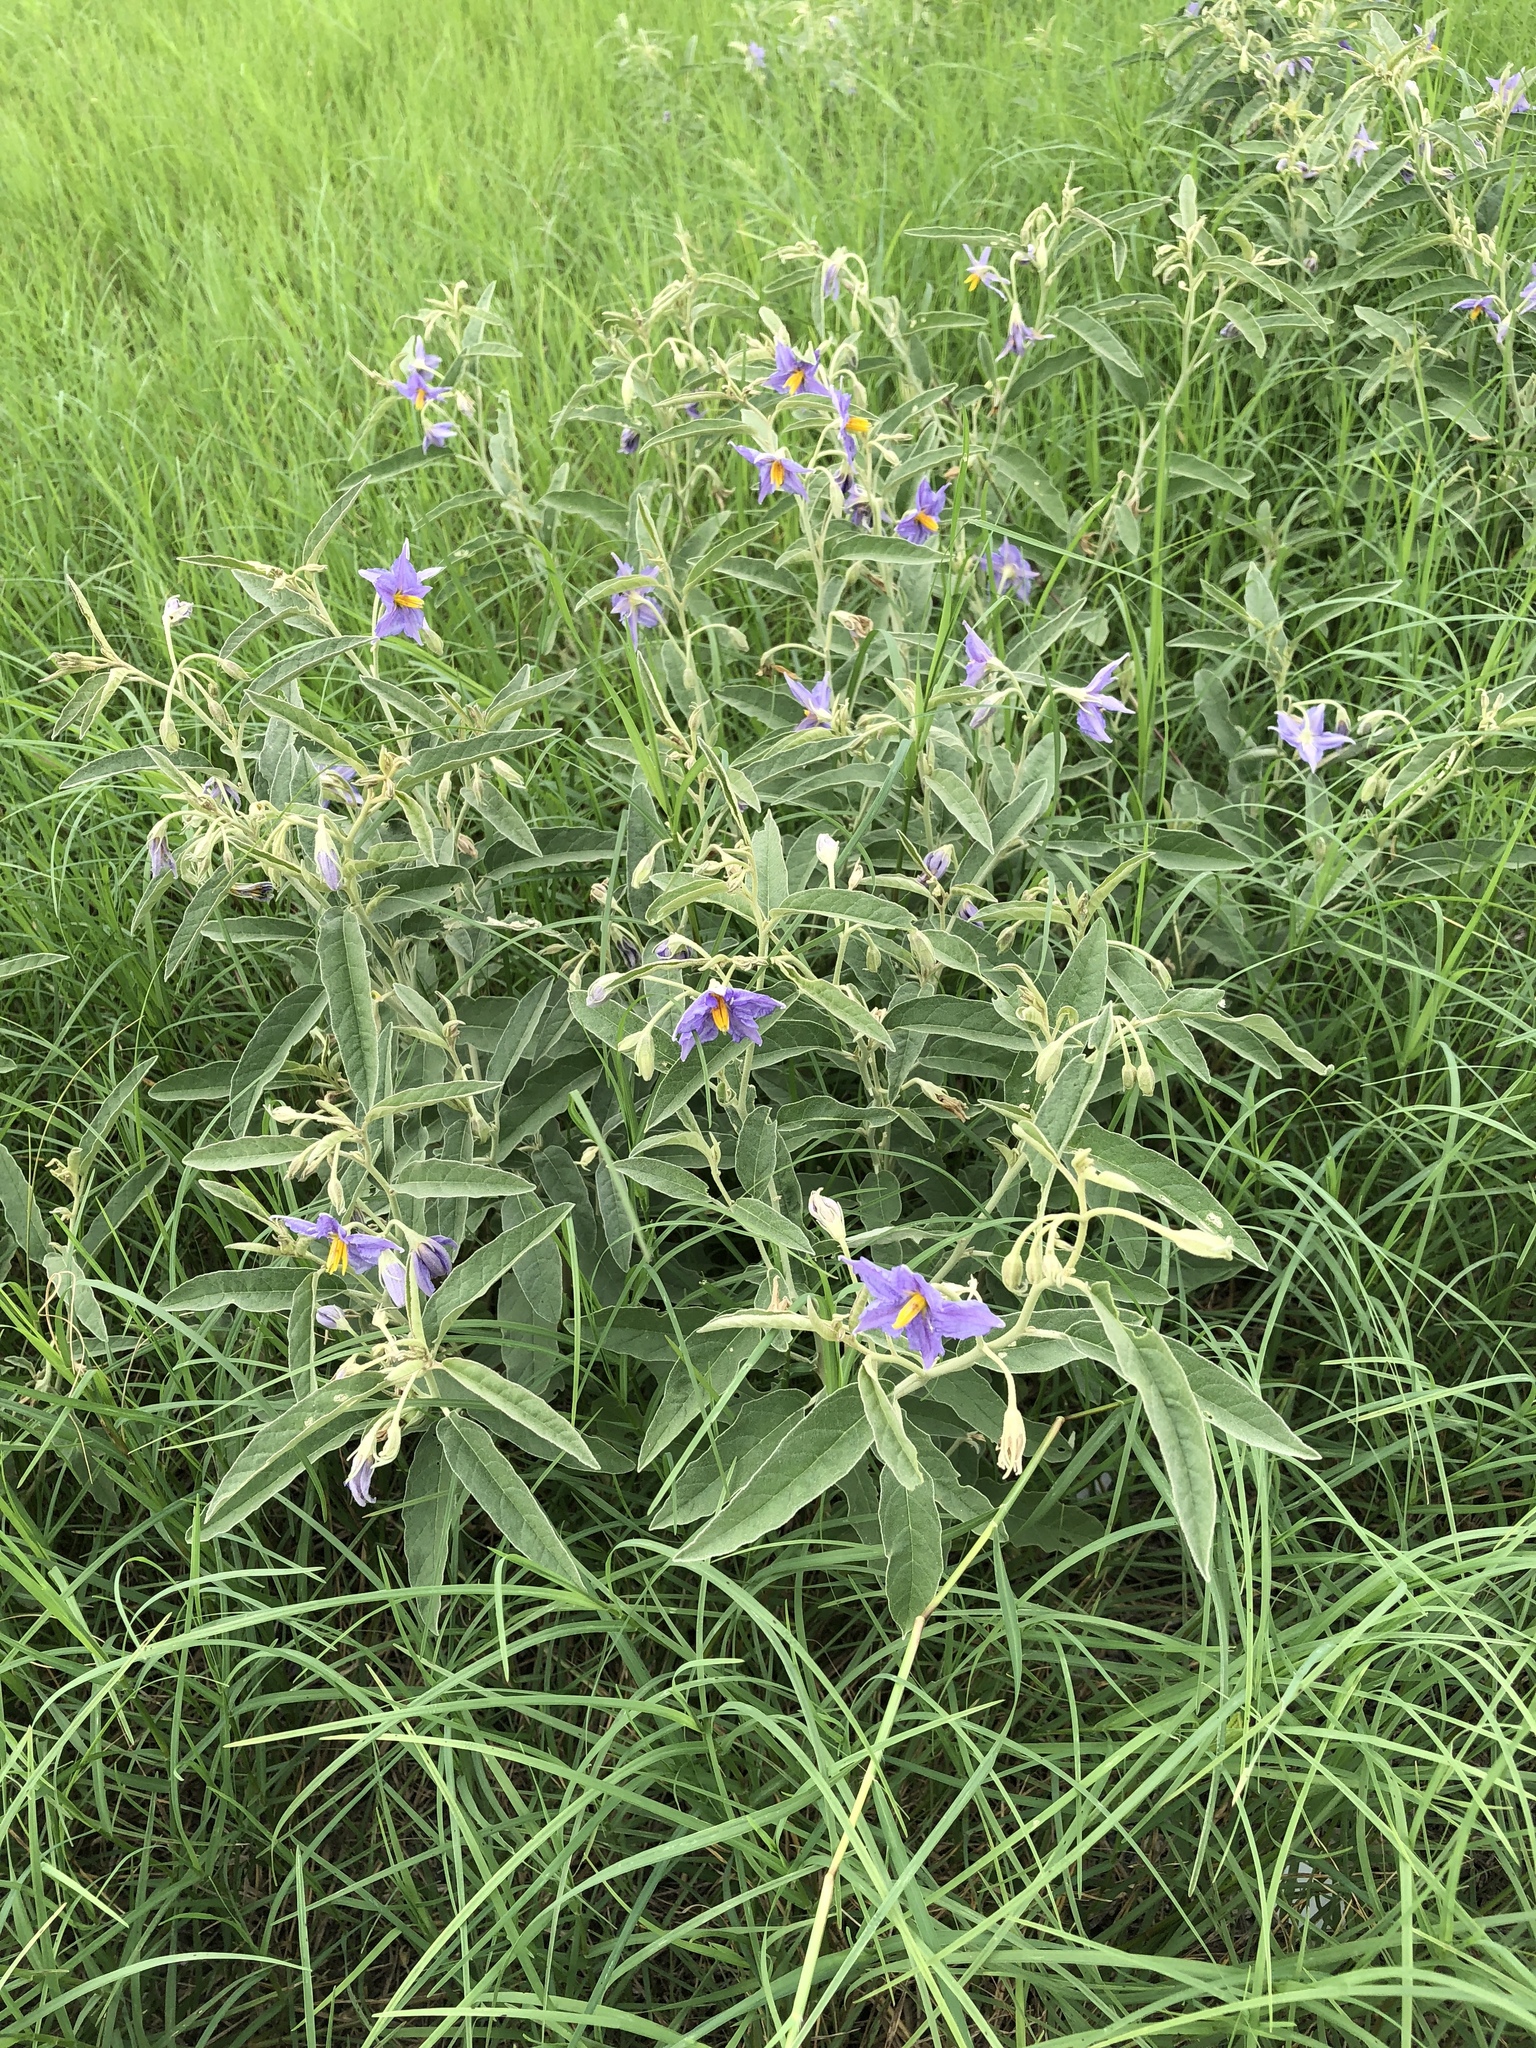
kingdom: Plantae
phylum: Tracheophyta
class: Magnoliopsida
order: Solanales
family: Solanaceae
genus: Solanum
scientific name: Solanum elaeagnifolium
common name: Silverleaf nightshade
